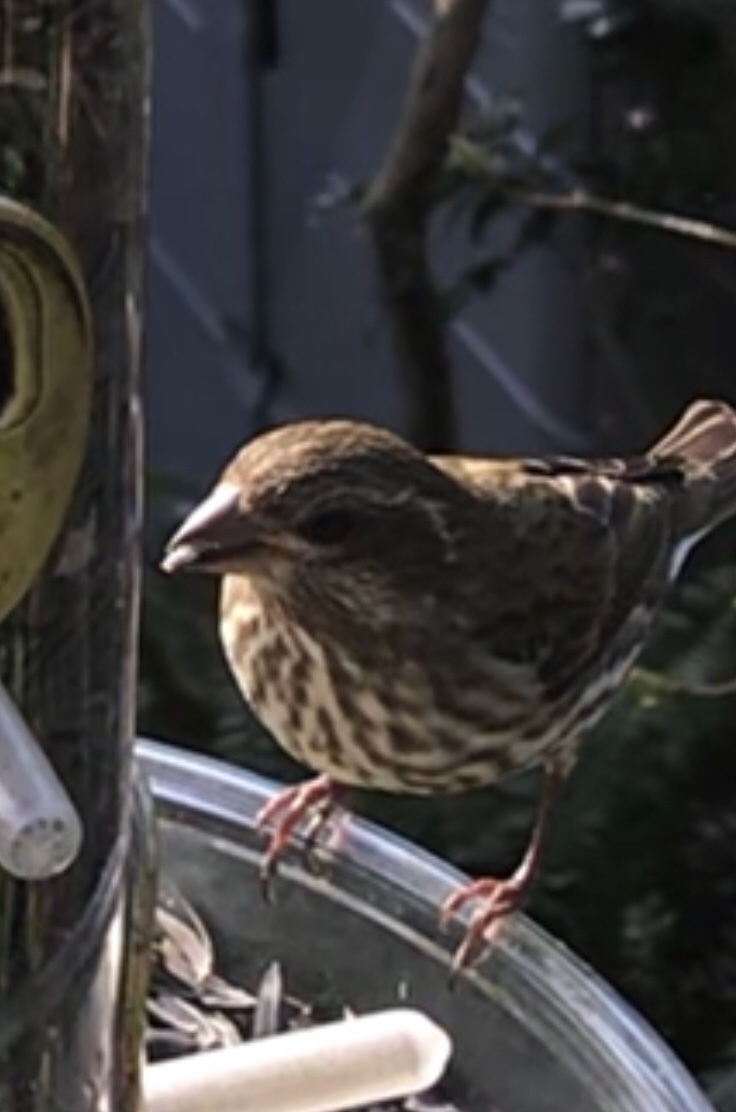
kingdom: Animalia
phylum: Chordata
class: Aves
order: Passeriformes
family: Fringillidae
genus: Haemorhous
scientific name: Haemorhous purpureus
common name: Purple finch
